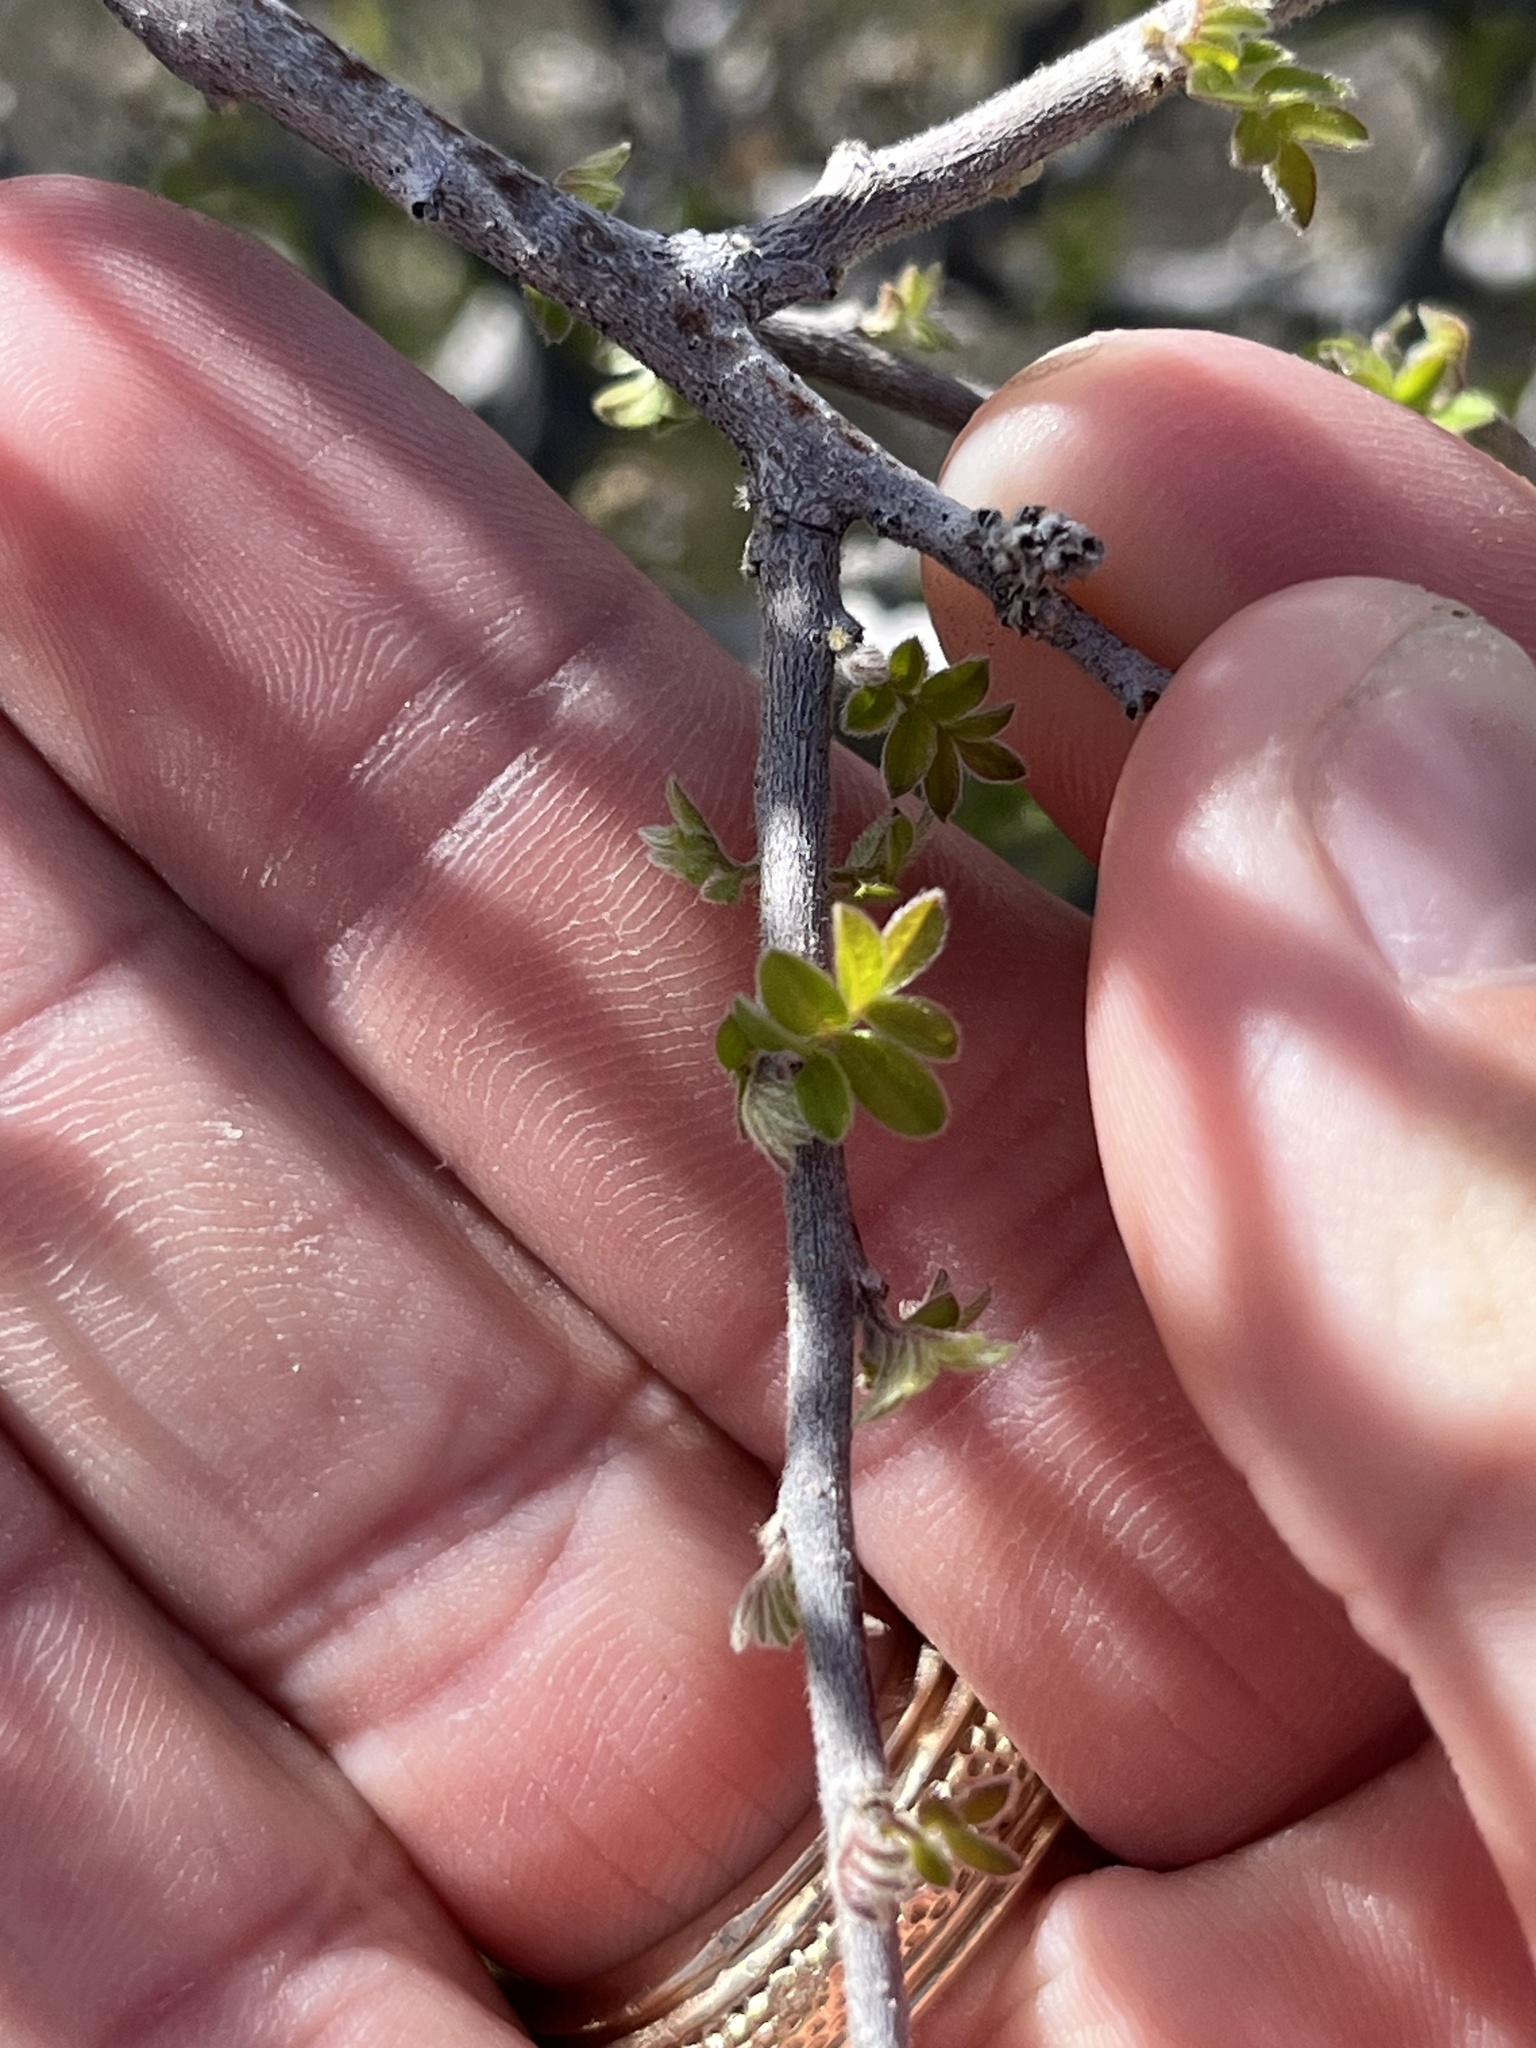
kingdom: Plantae
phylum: Tracheophyta
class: Magnoliopsida
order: Sapindales
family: Anacardiaceae
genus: Rhus
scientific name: Rhus microphylla
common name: Desert sumac
